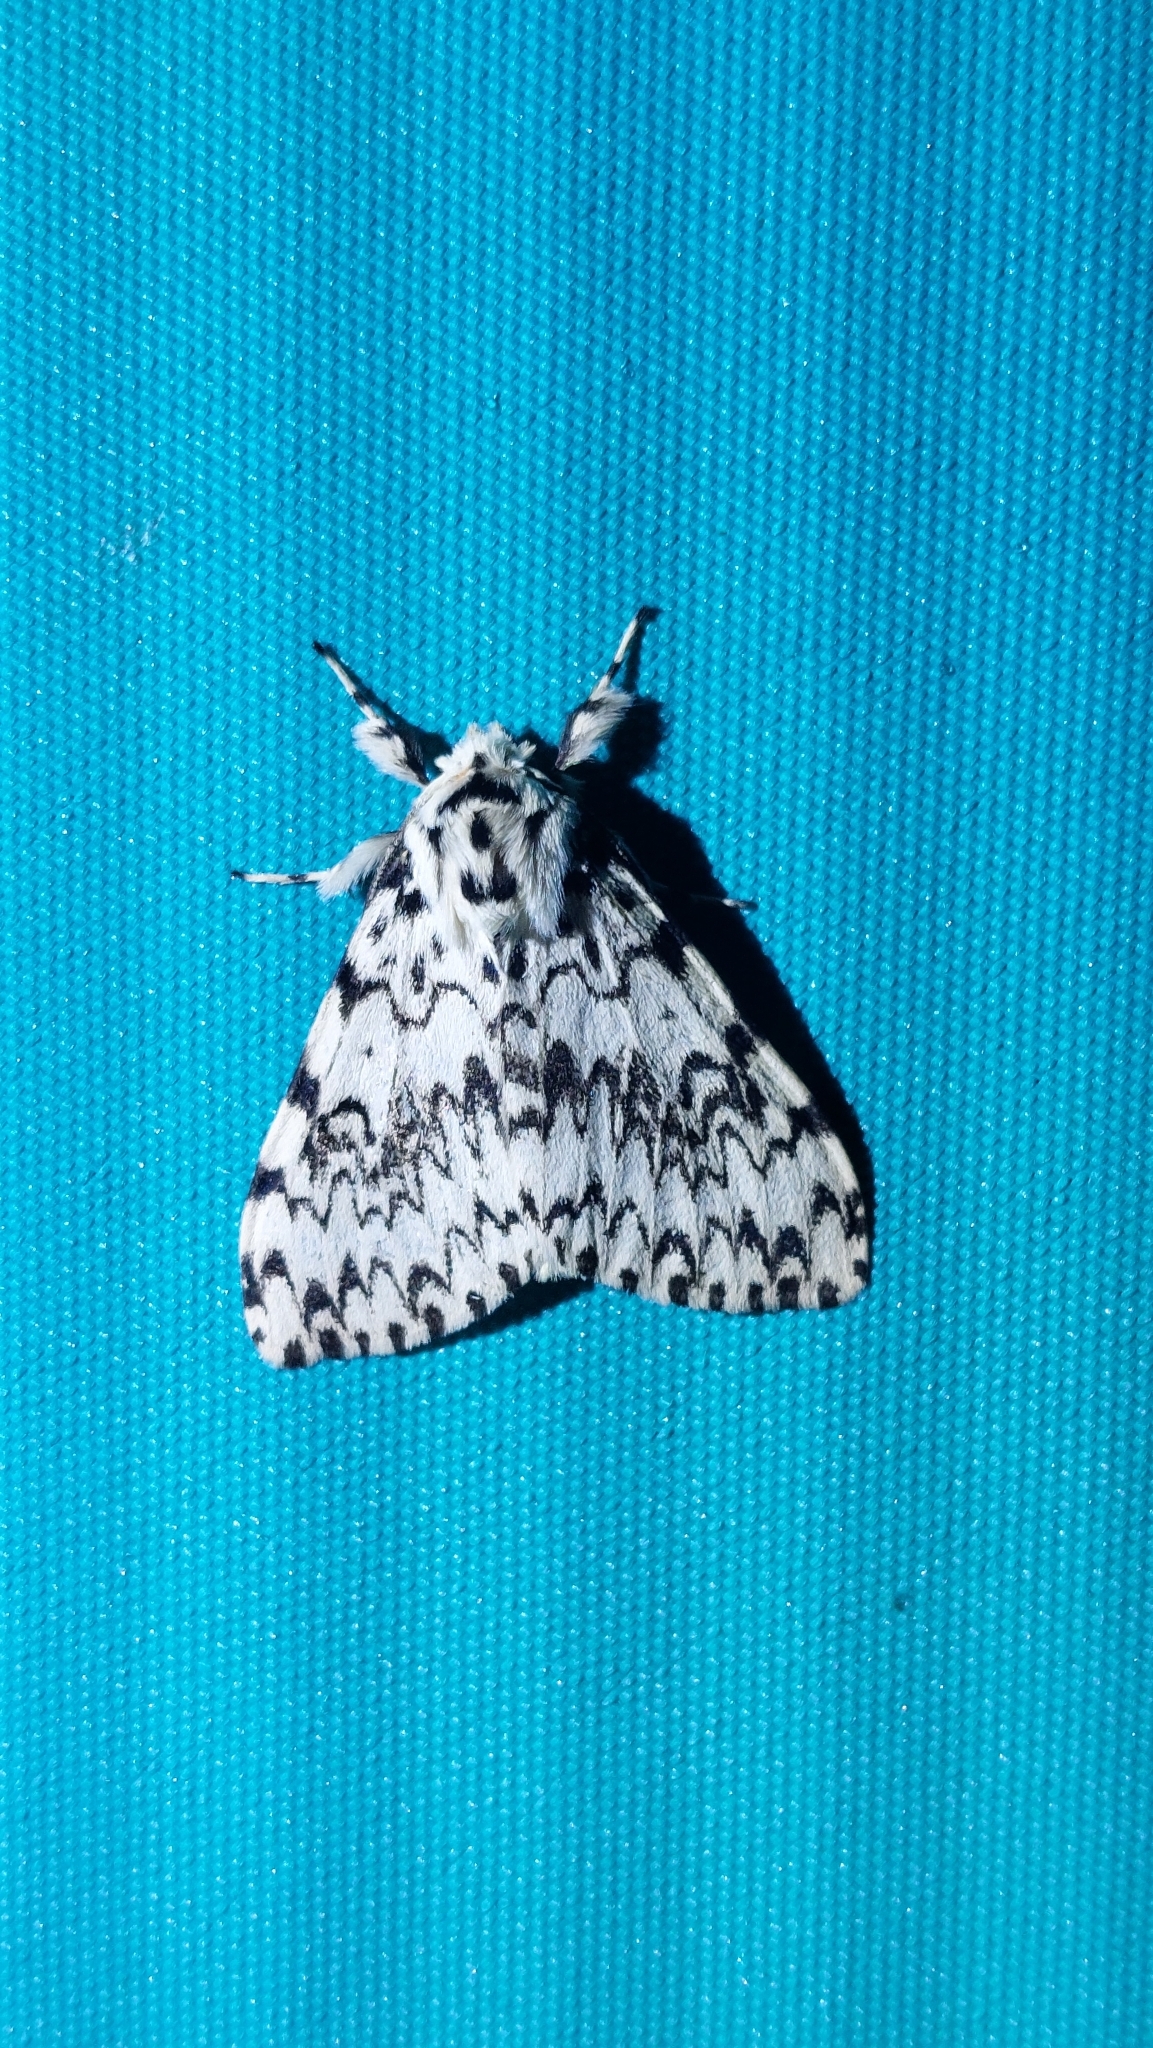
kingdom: Animalia
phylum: Arthropoda
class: Insecta
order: Lepidoptera
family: Erebidae
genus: Lymantria
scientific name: Lymantria monacha
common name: Black arches
